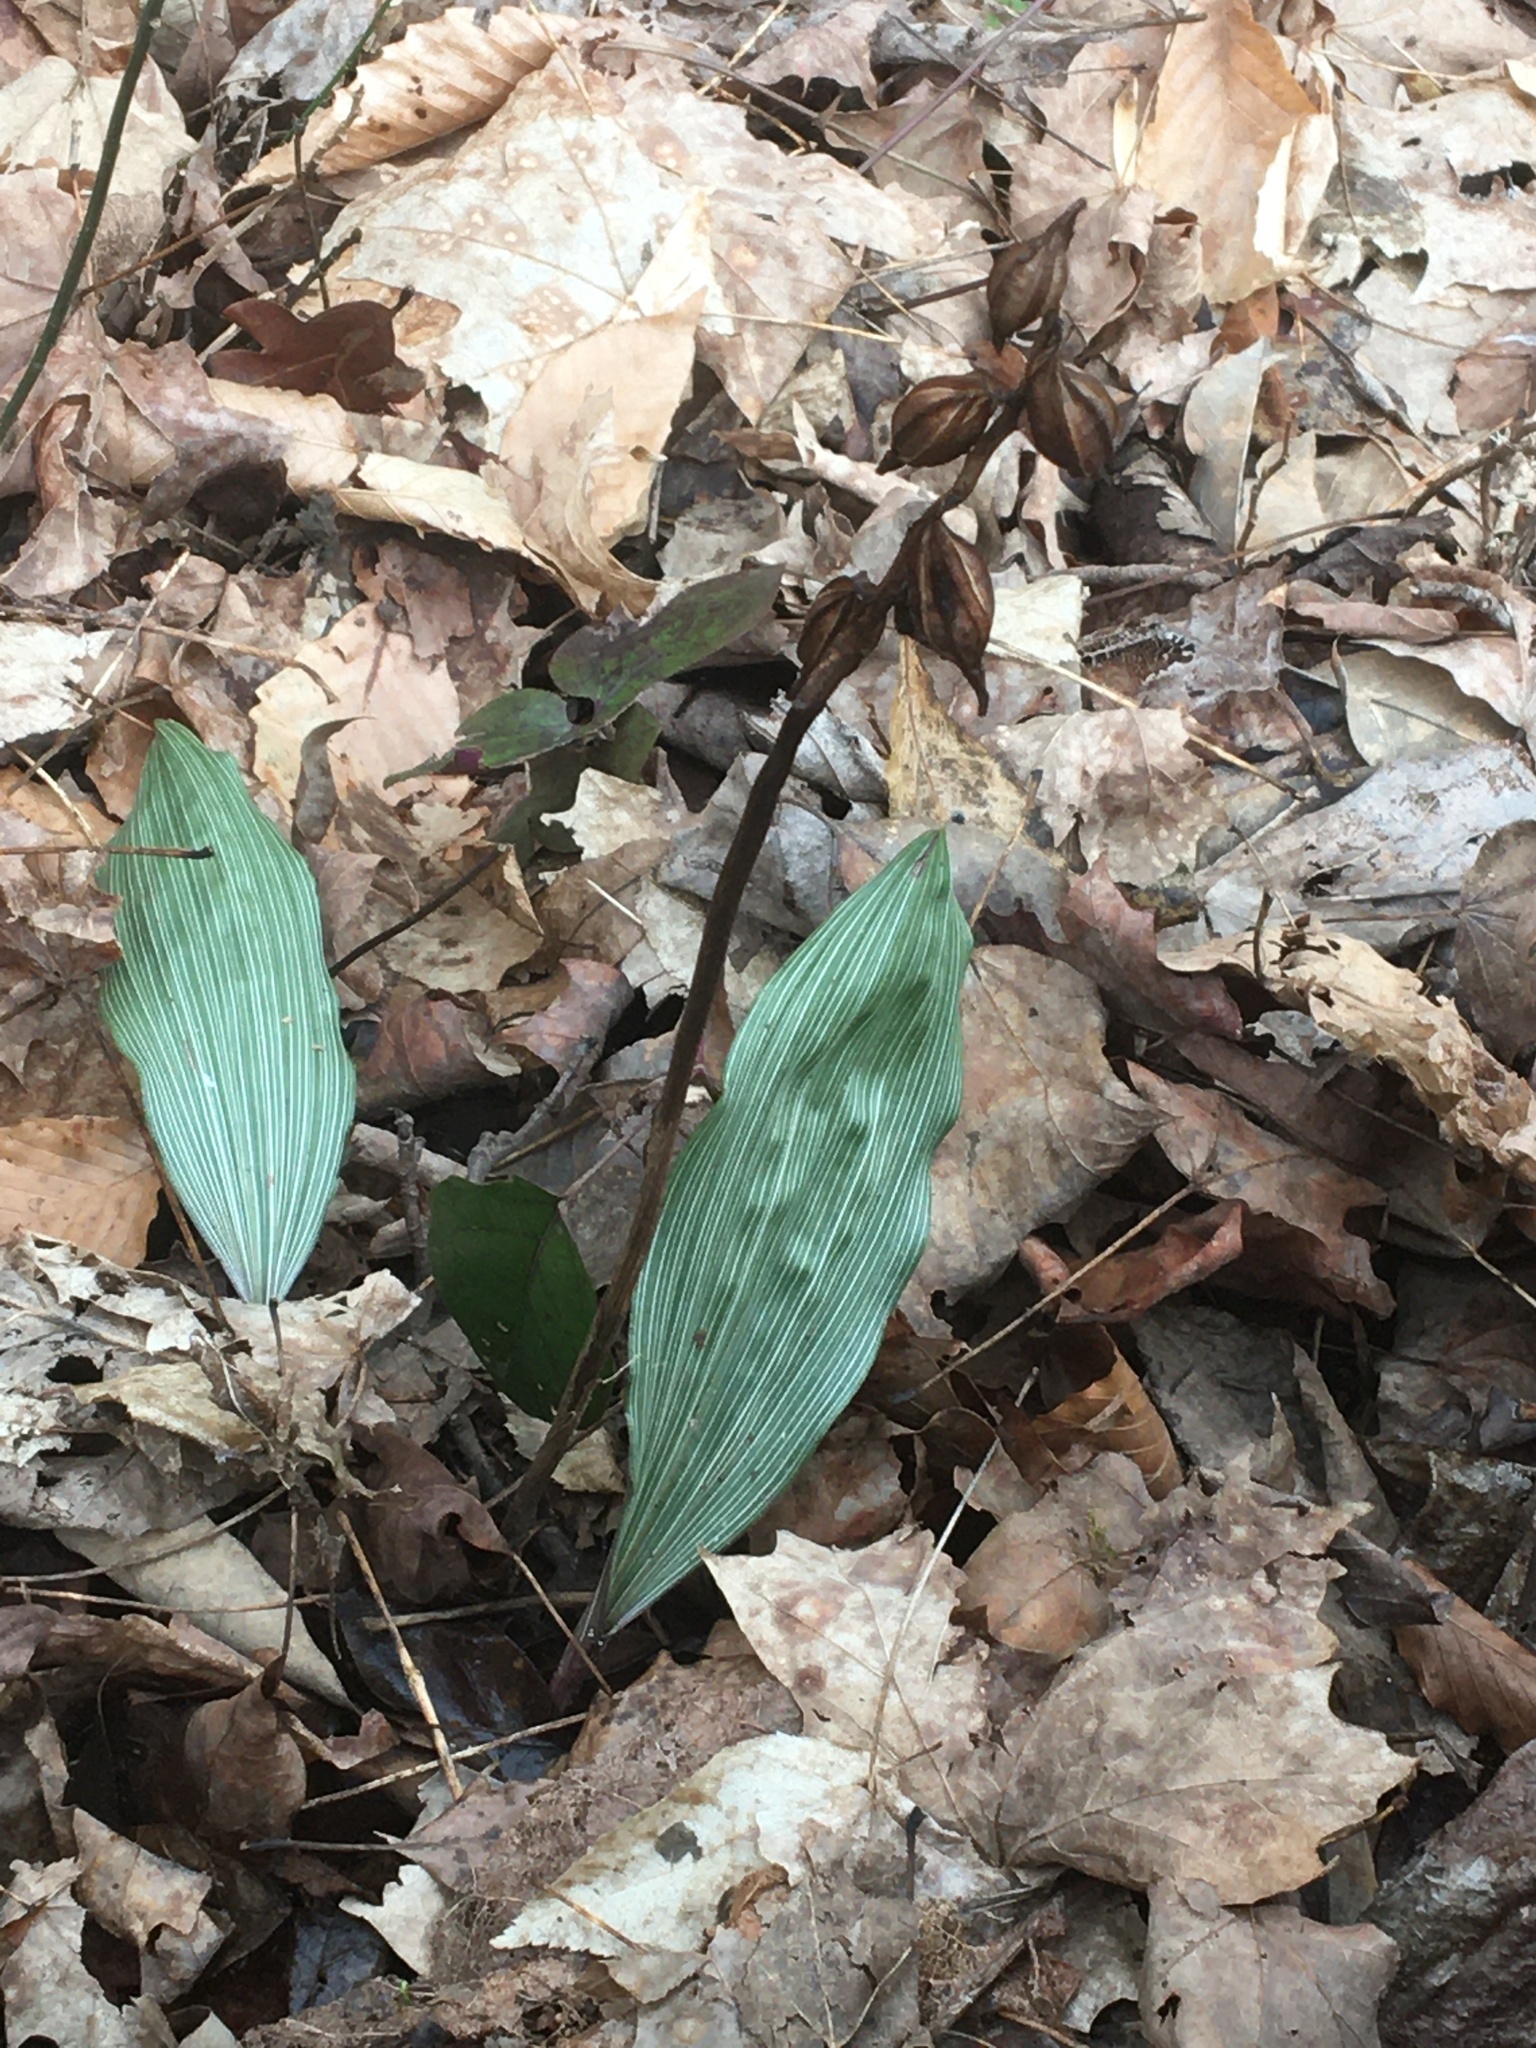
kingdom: Plantae
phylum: Tracheophyta
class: Liliopsida
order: Asparagales
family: Orchidaceae
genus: Aplectrum
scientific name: Aplectrum hyemale
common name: Adam-and-eve
